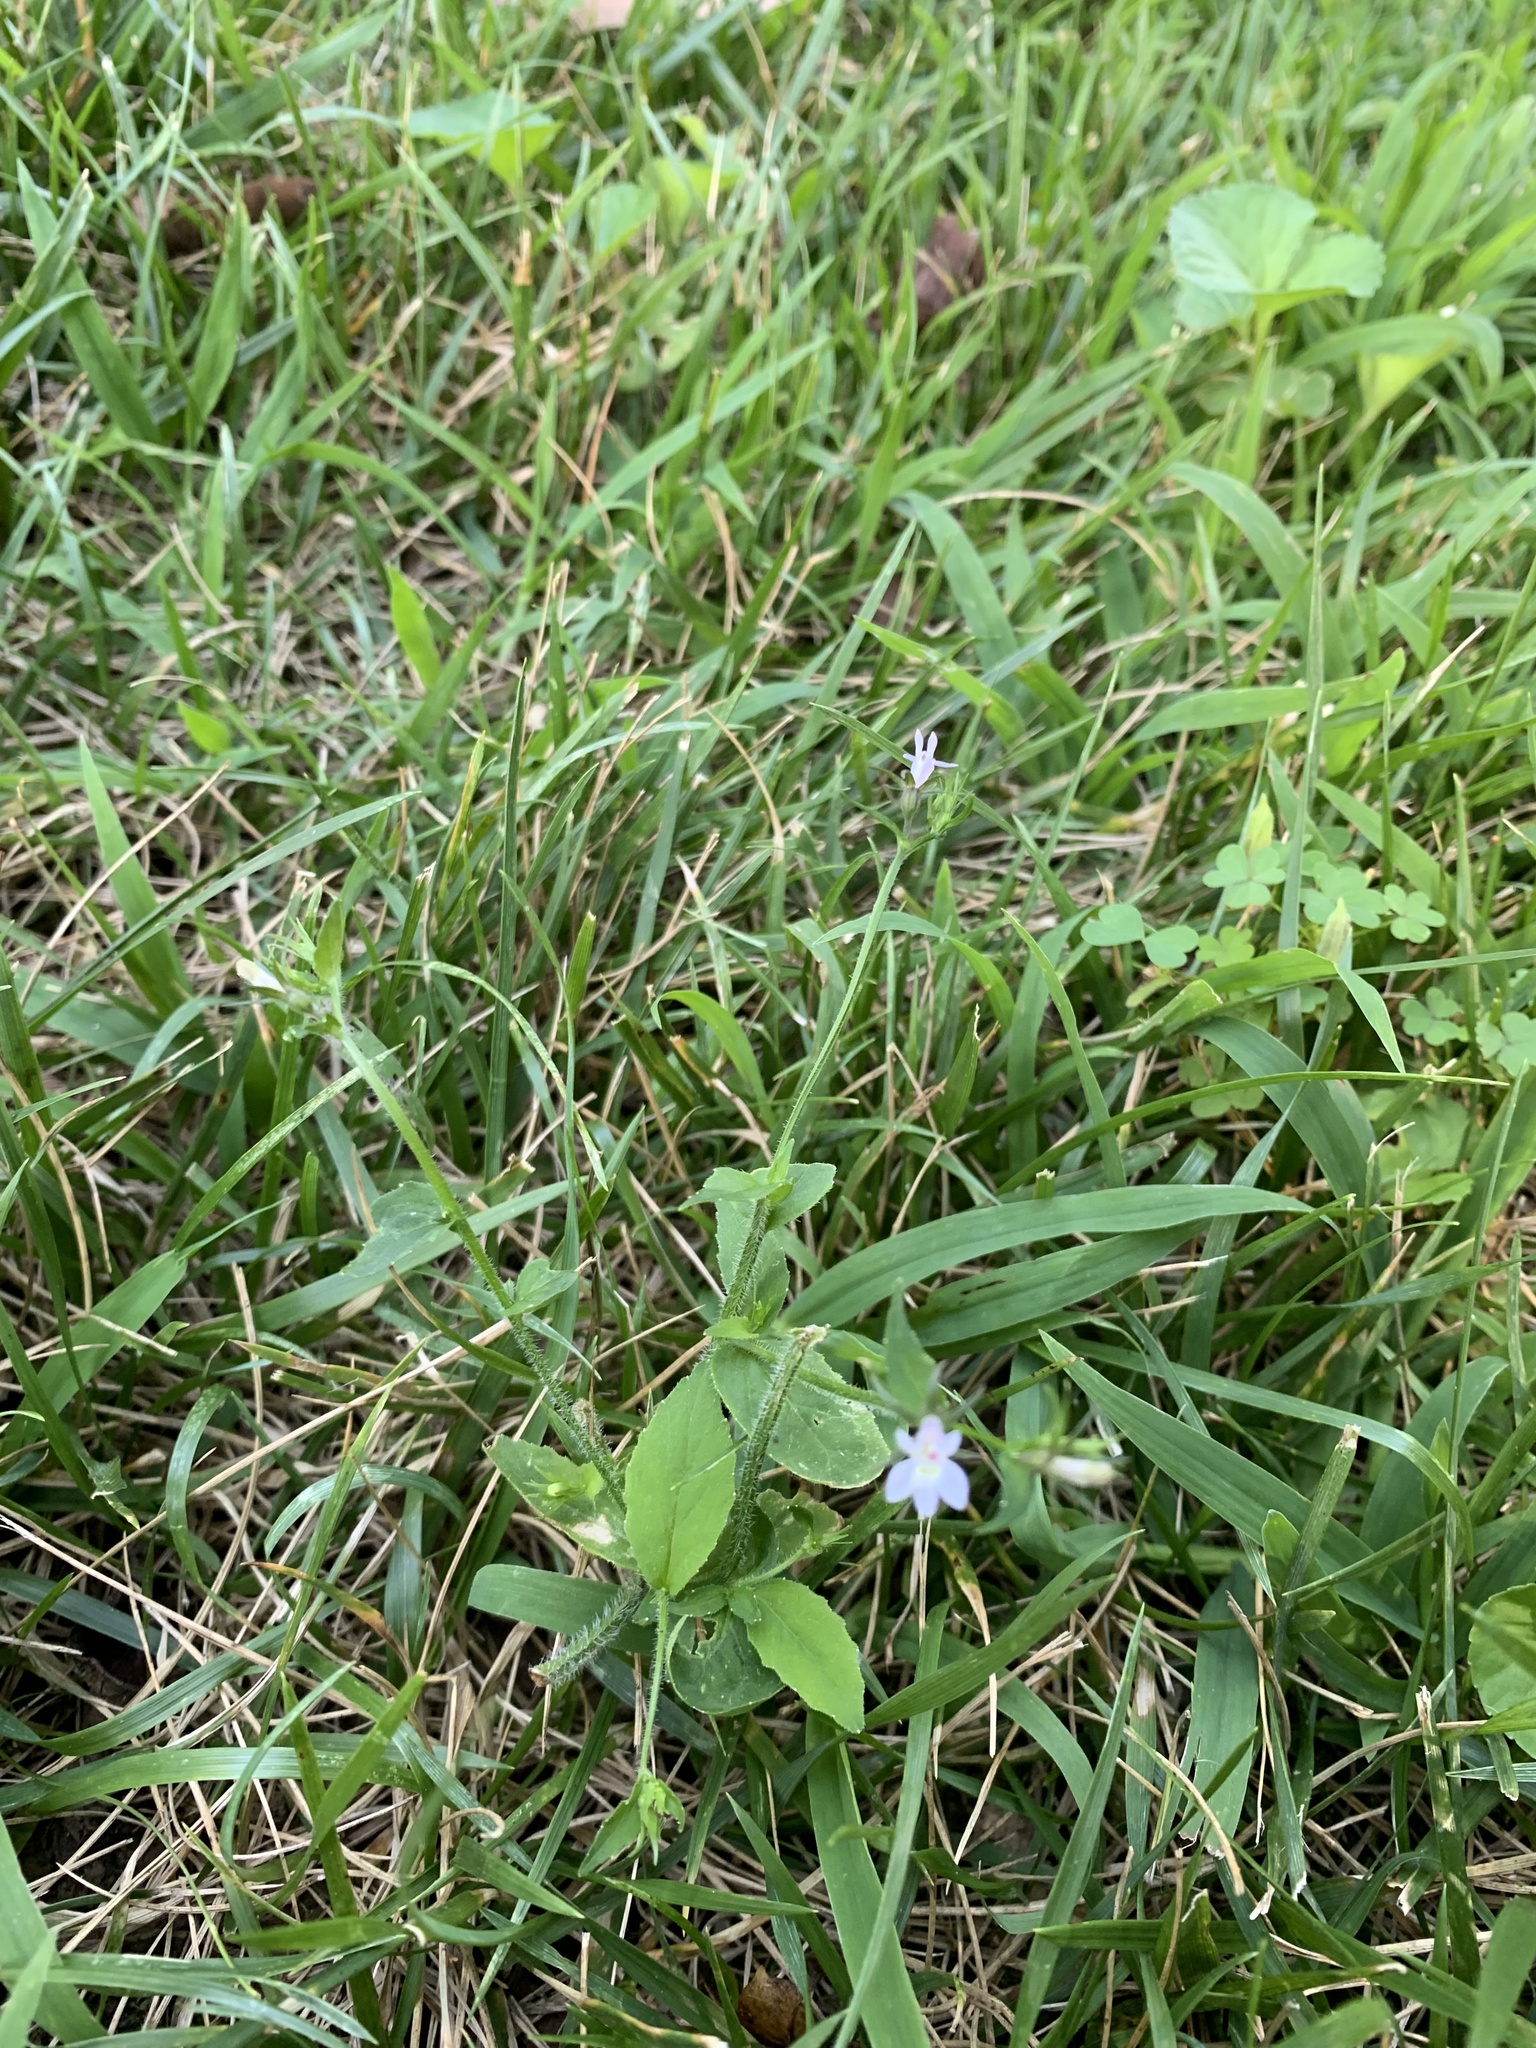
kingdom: Plantae
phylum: Tracheophyta
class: Magnoliopsida
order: Asterales
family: Campanulaceae
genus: Lobelia
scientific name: Lobelia inflata
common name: Indian tobacco
